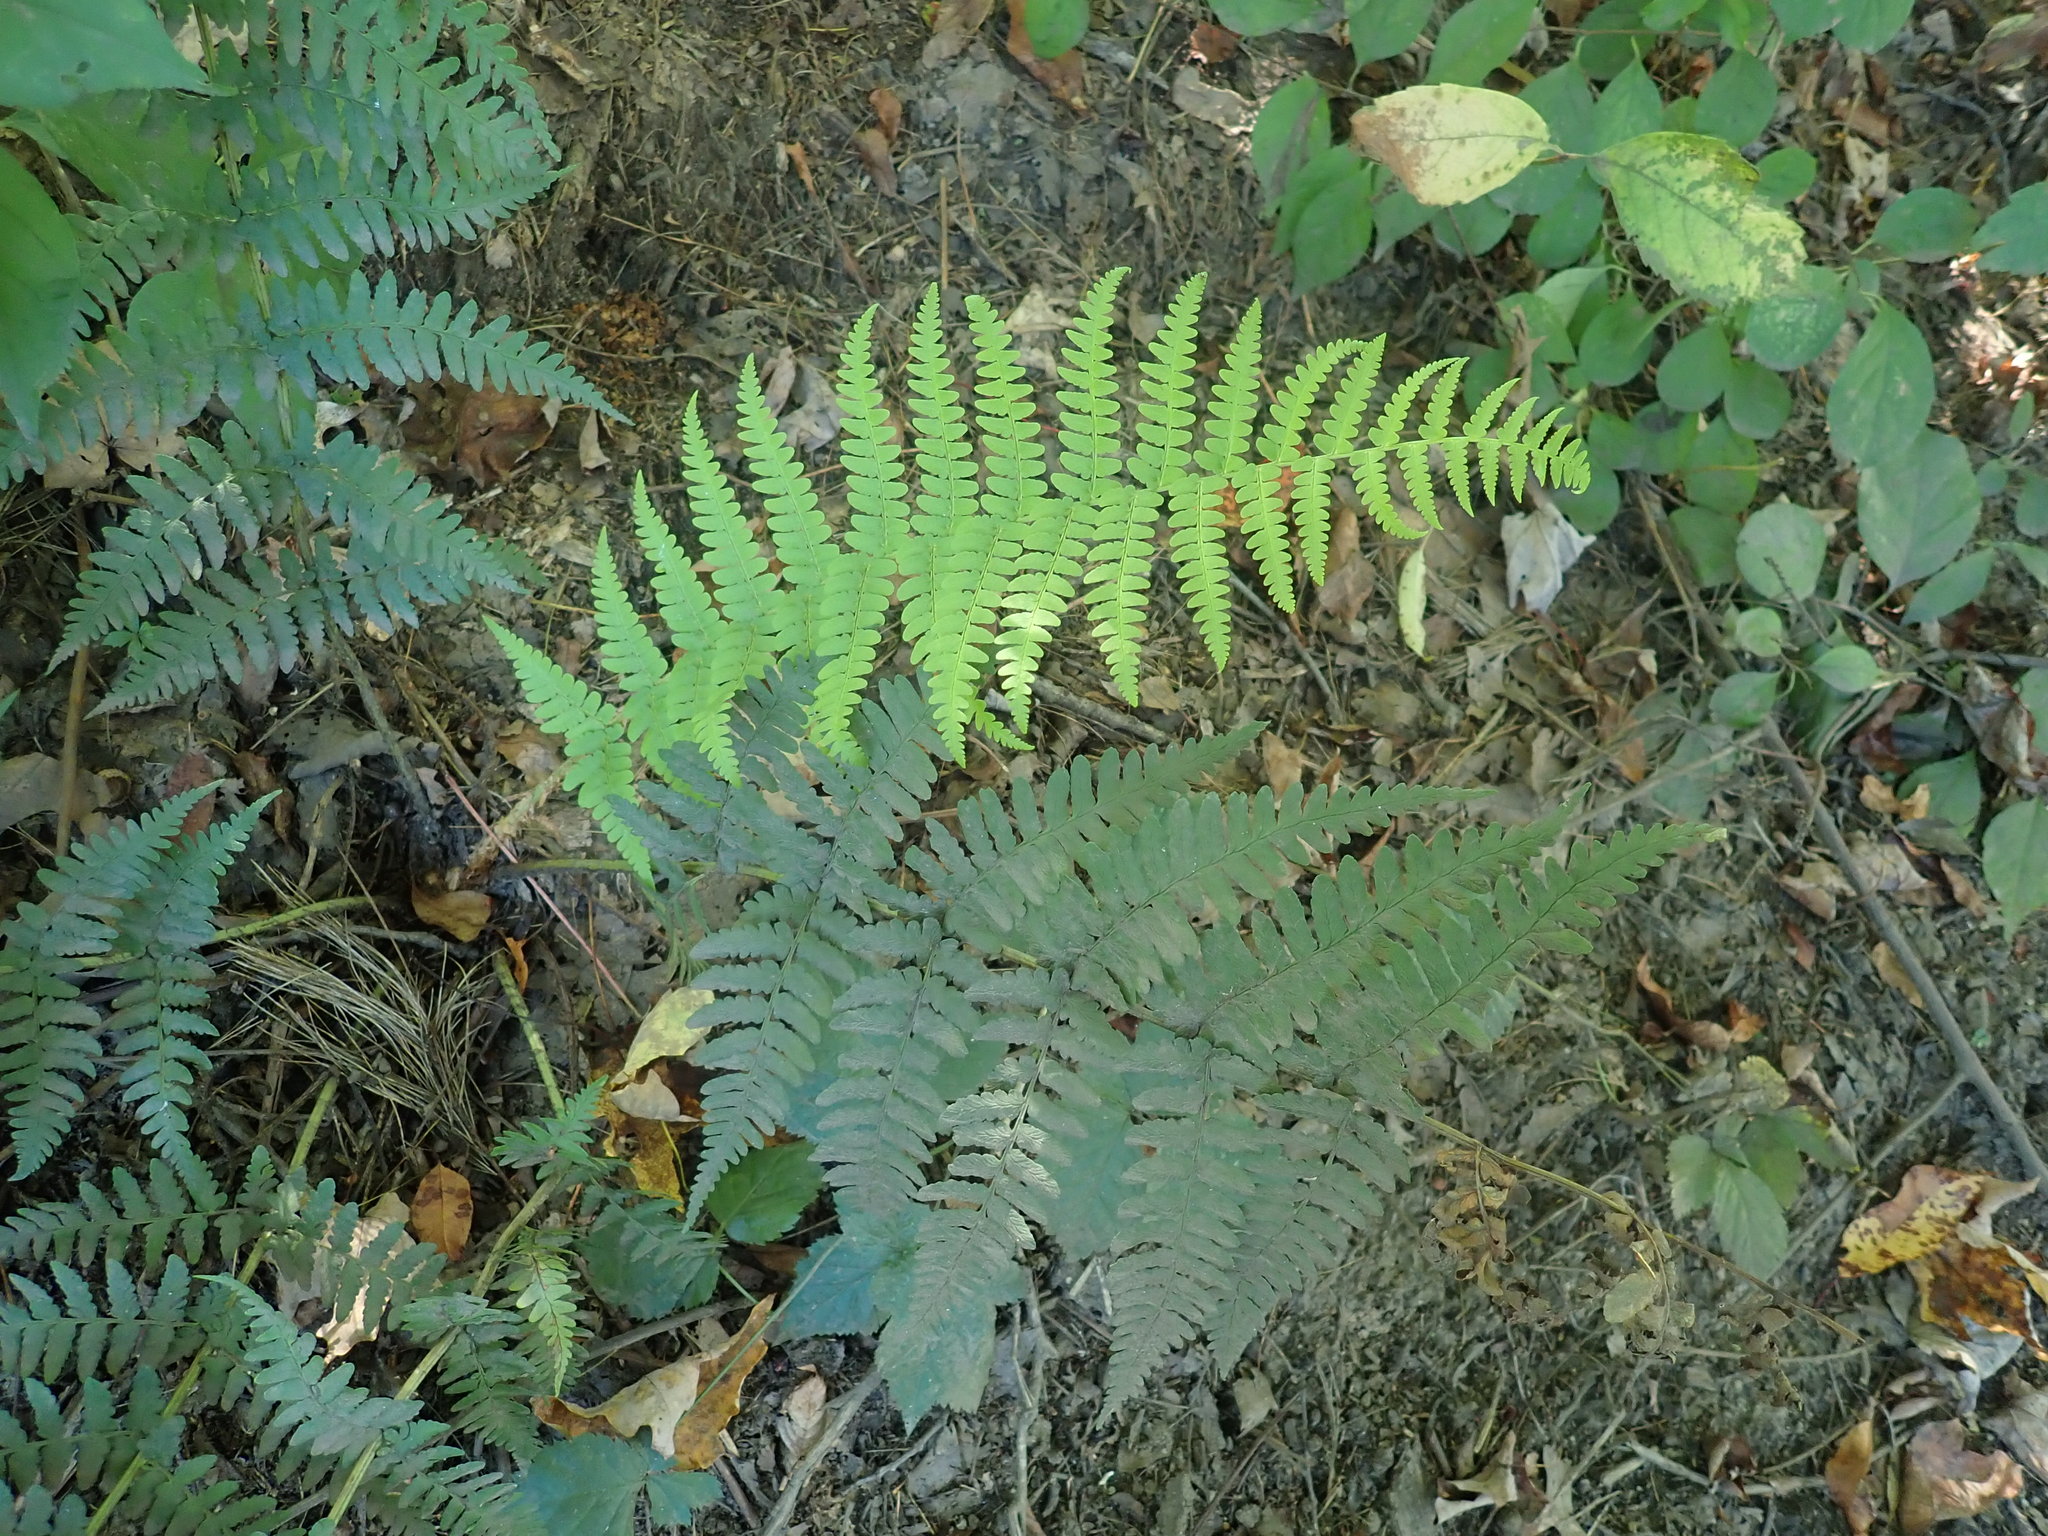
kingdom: Plantae
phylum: Tracheophyta
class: Polypodiopsida
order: Polypodiales
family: Dryopteridaceae
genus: Dryopteris
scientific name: Dryopteris marginalis
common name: Marginal wood fern
